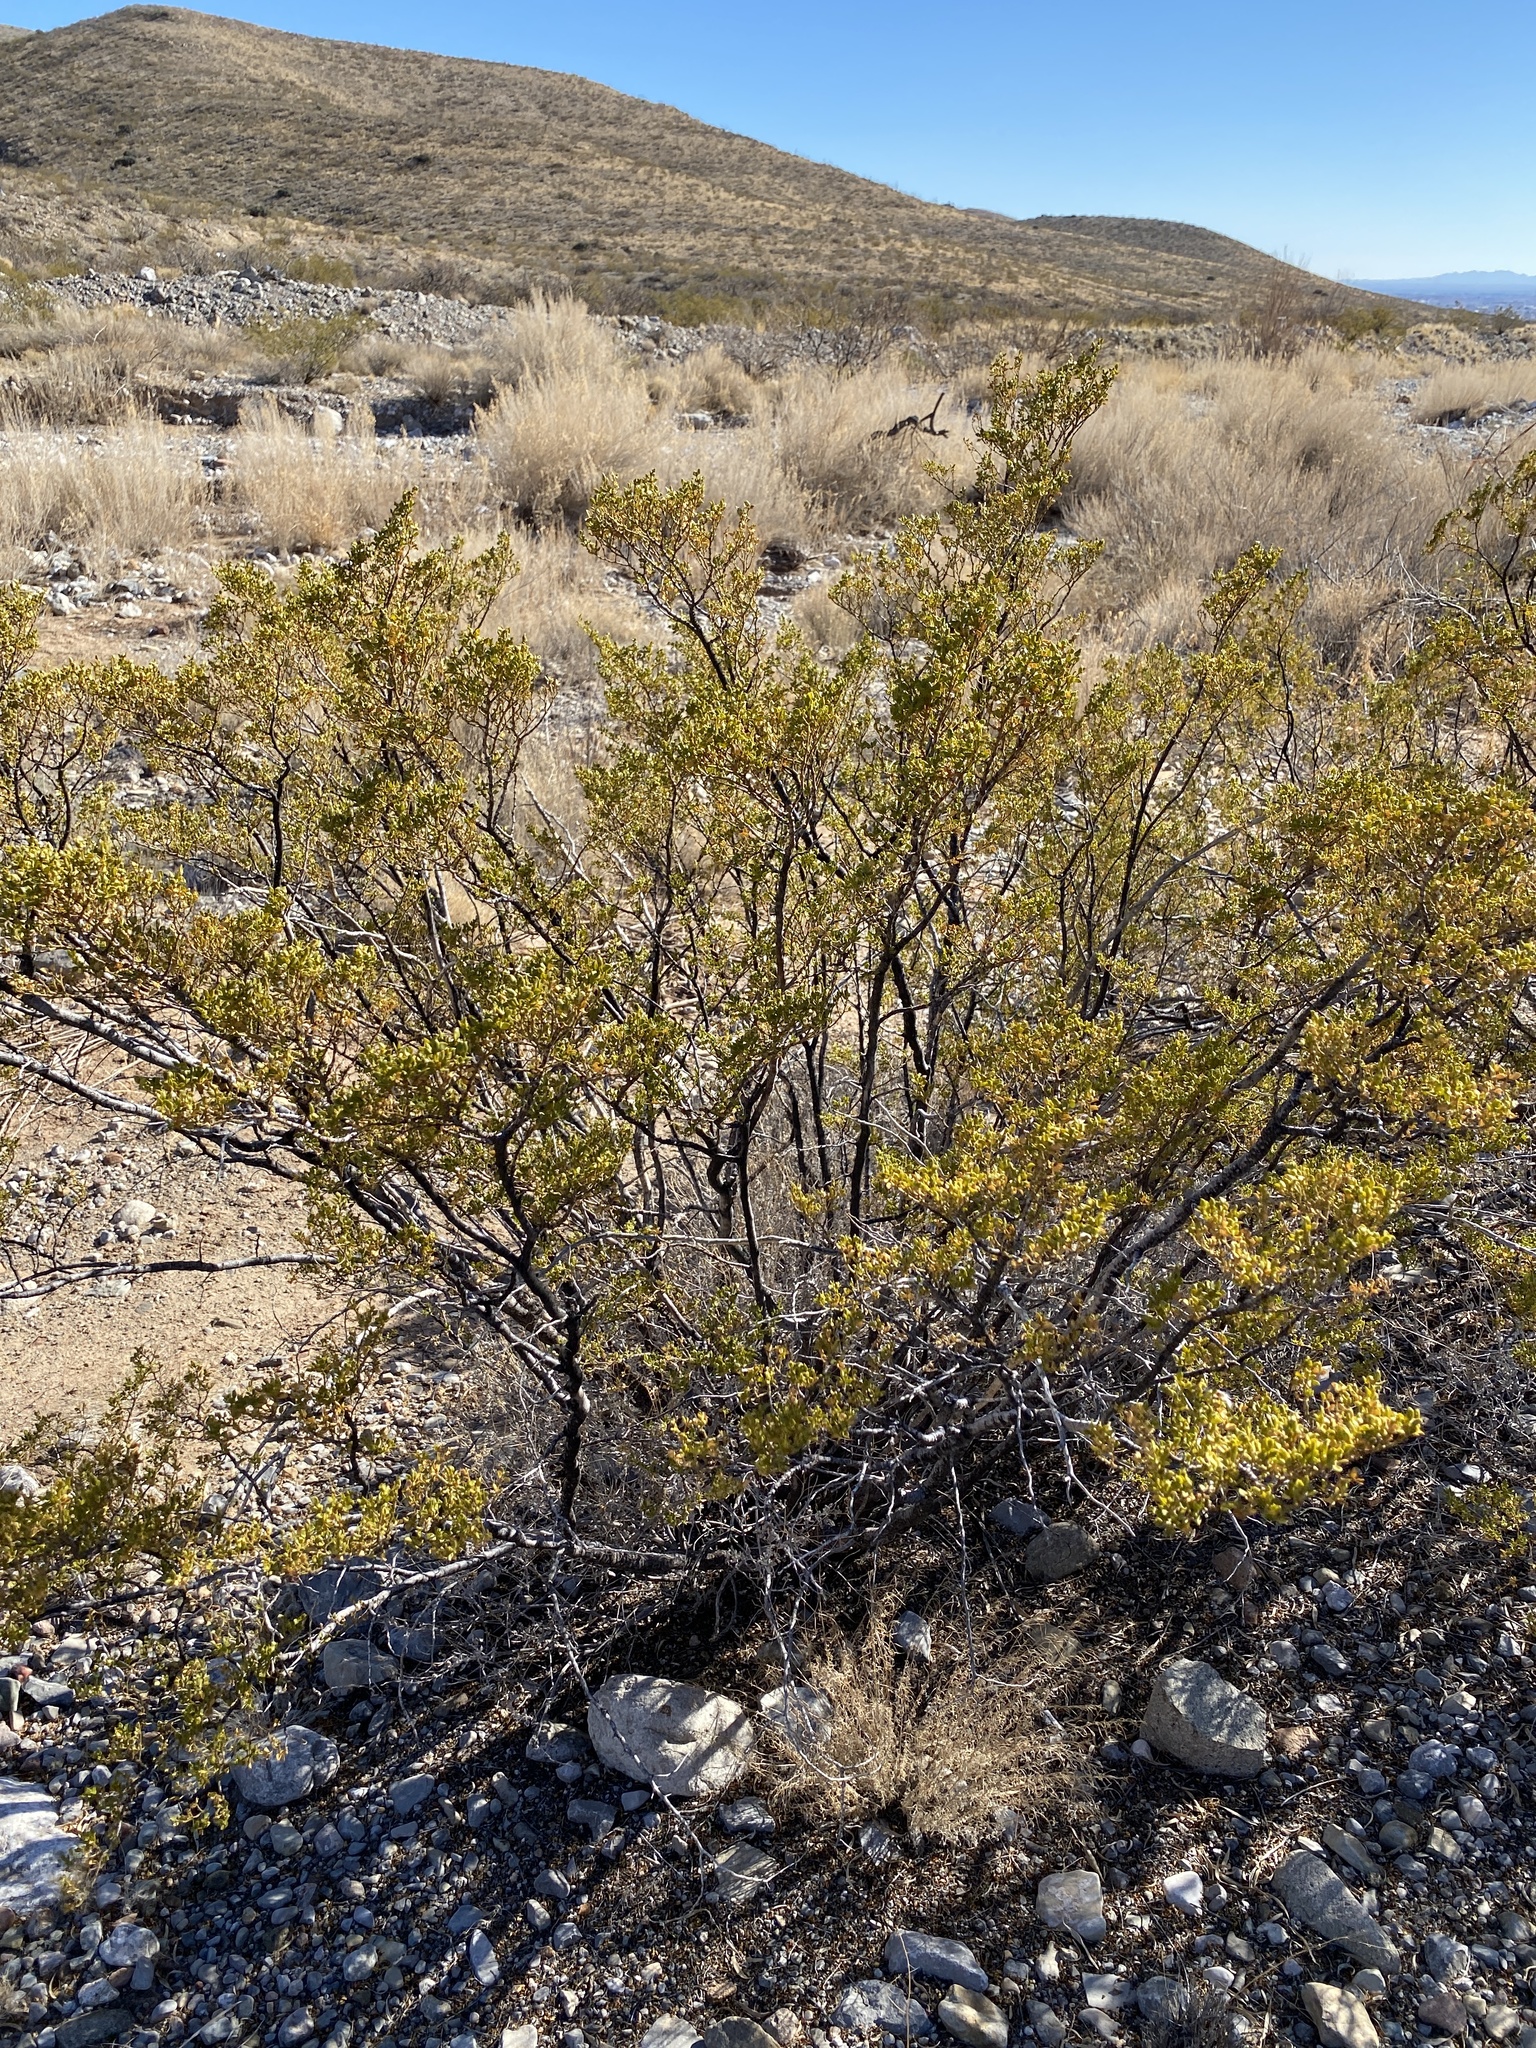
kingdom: Plantae
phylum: Tracheophyta
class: Magnoliopsida
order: Zygophyllales
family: Zygophyllaceae
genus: Larrea
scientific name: Larrea tridentata
